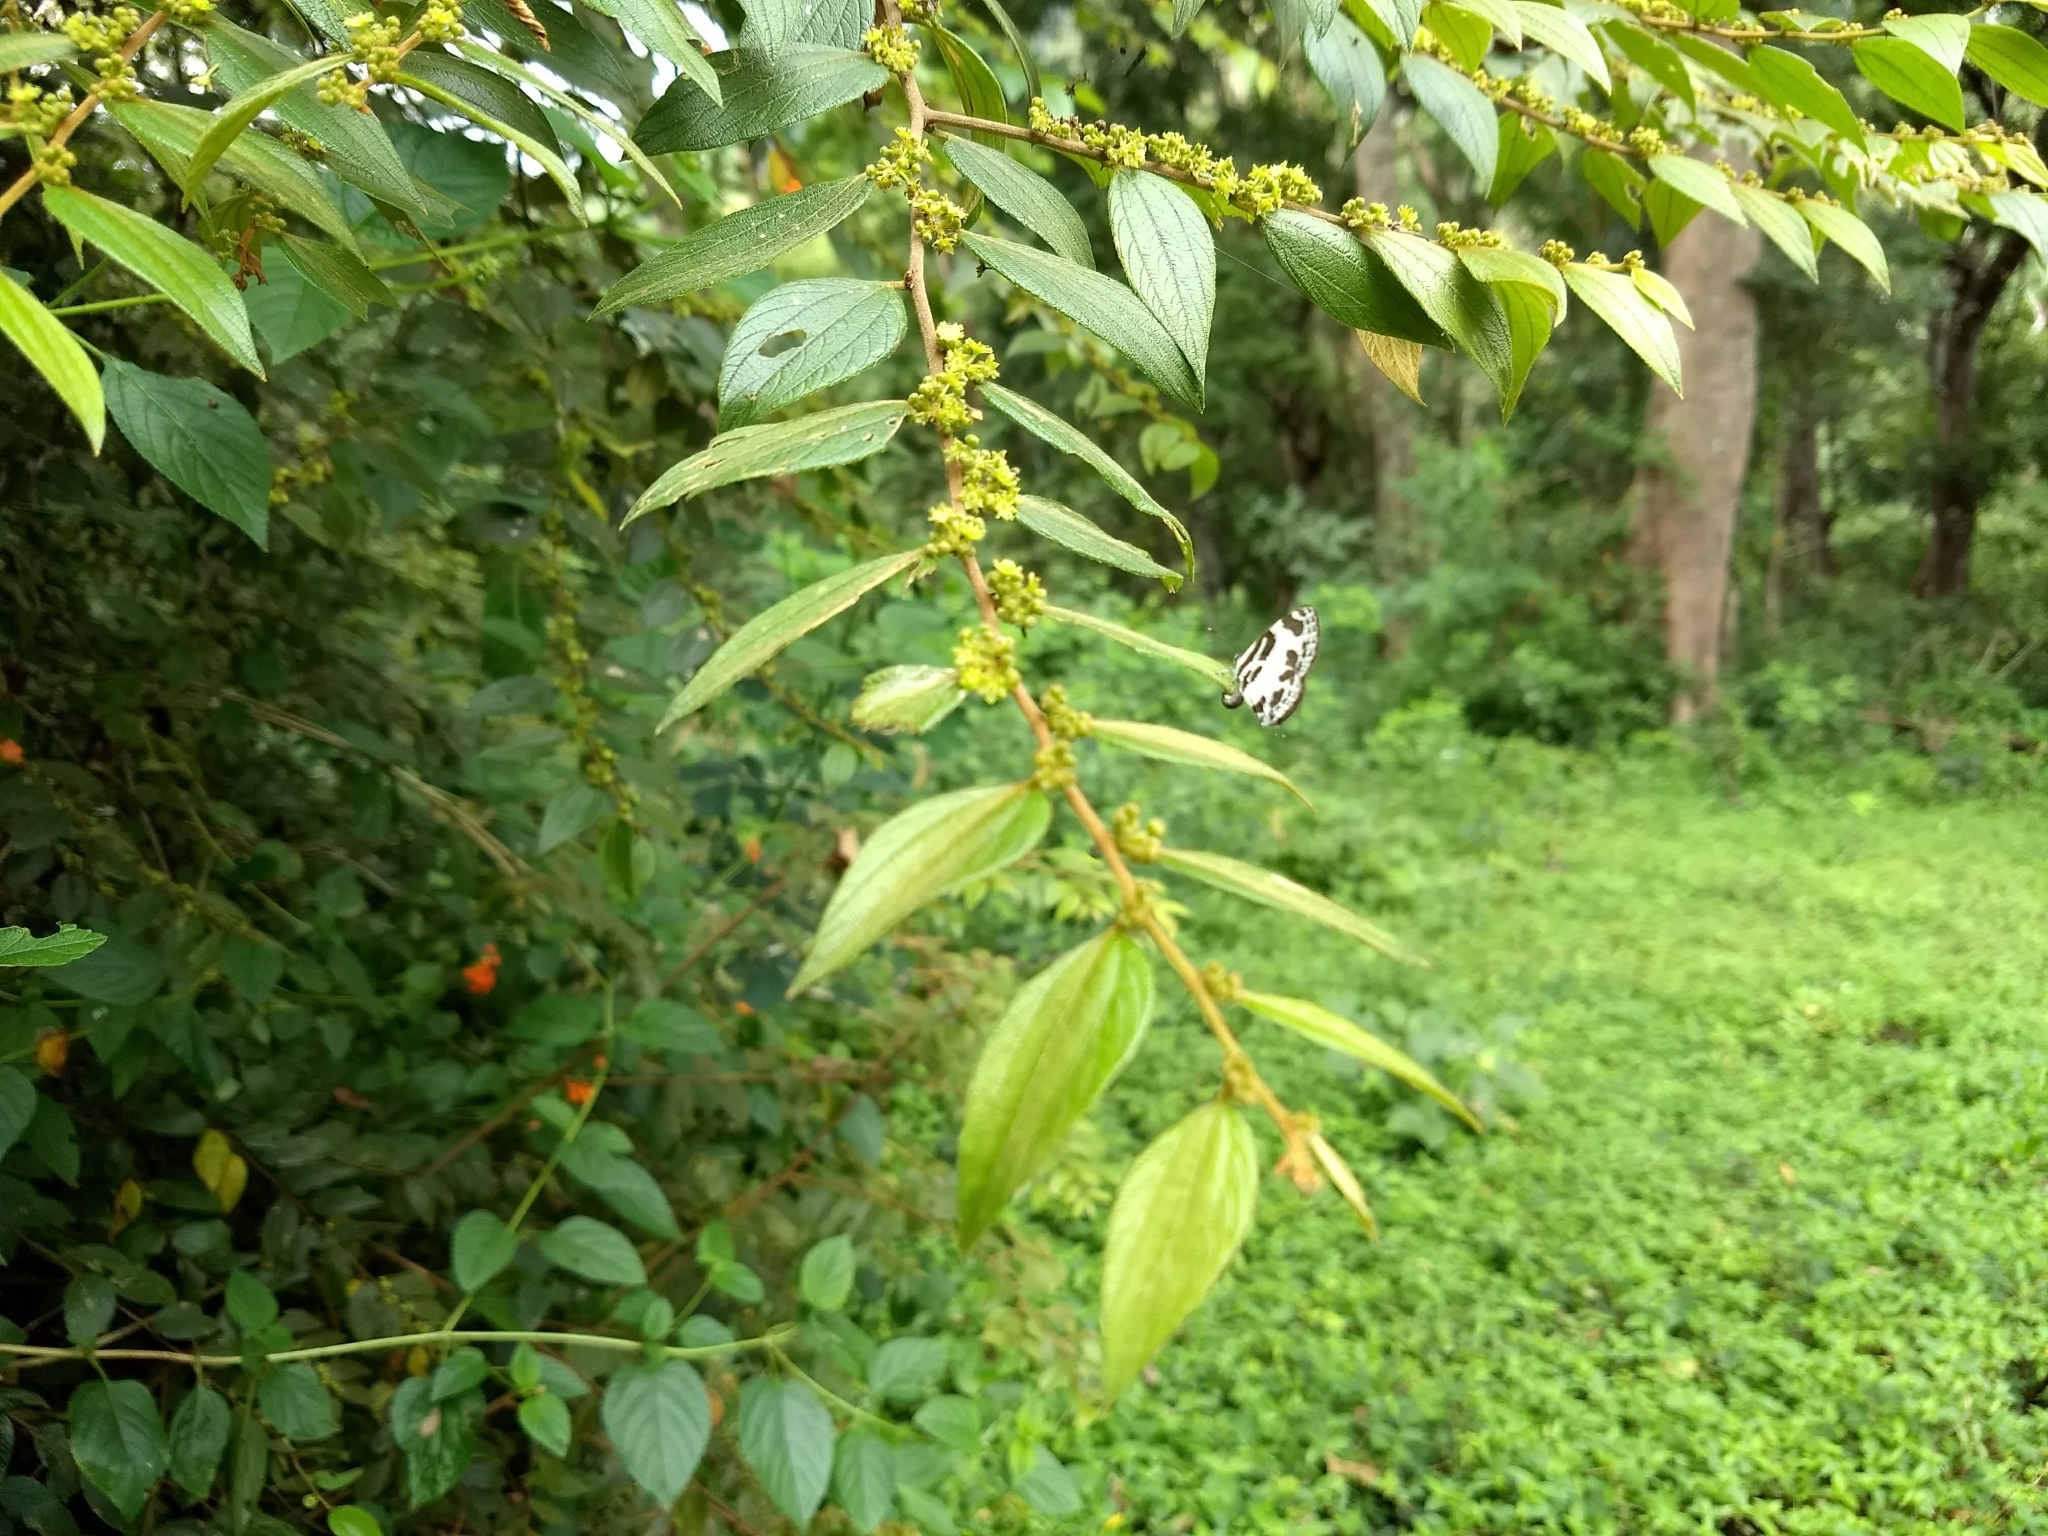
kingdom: Plantae
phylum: Tracheophyta
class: Magnoliopsida
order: Rosales
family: Rhamnaceae
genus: Ziziphus
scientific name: Ziziphus oenopolia
